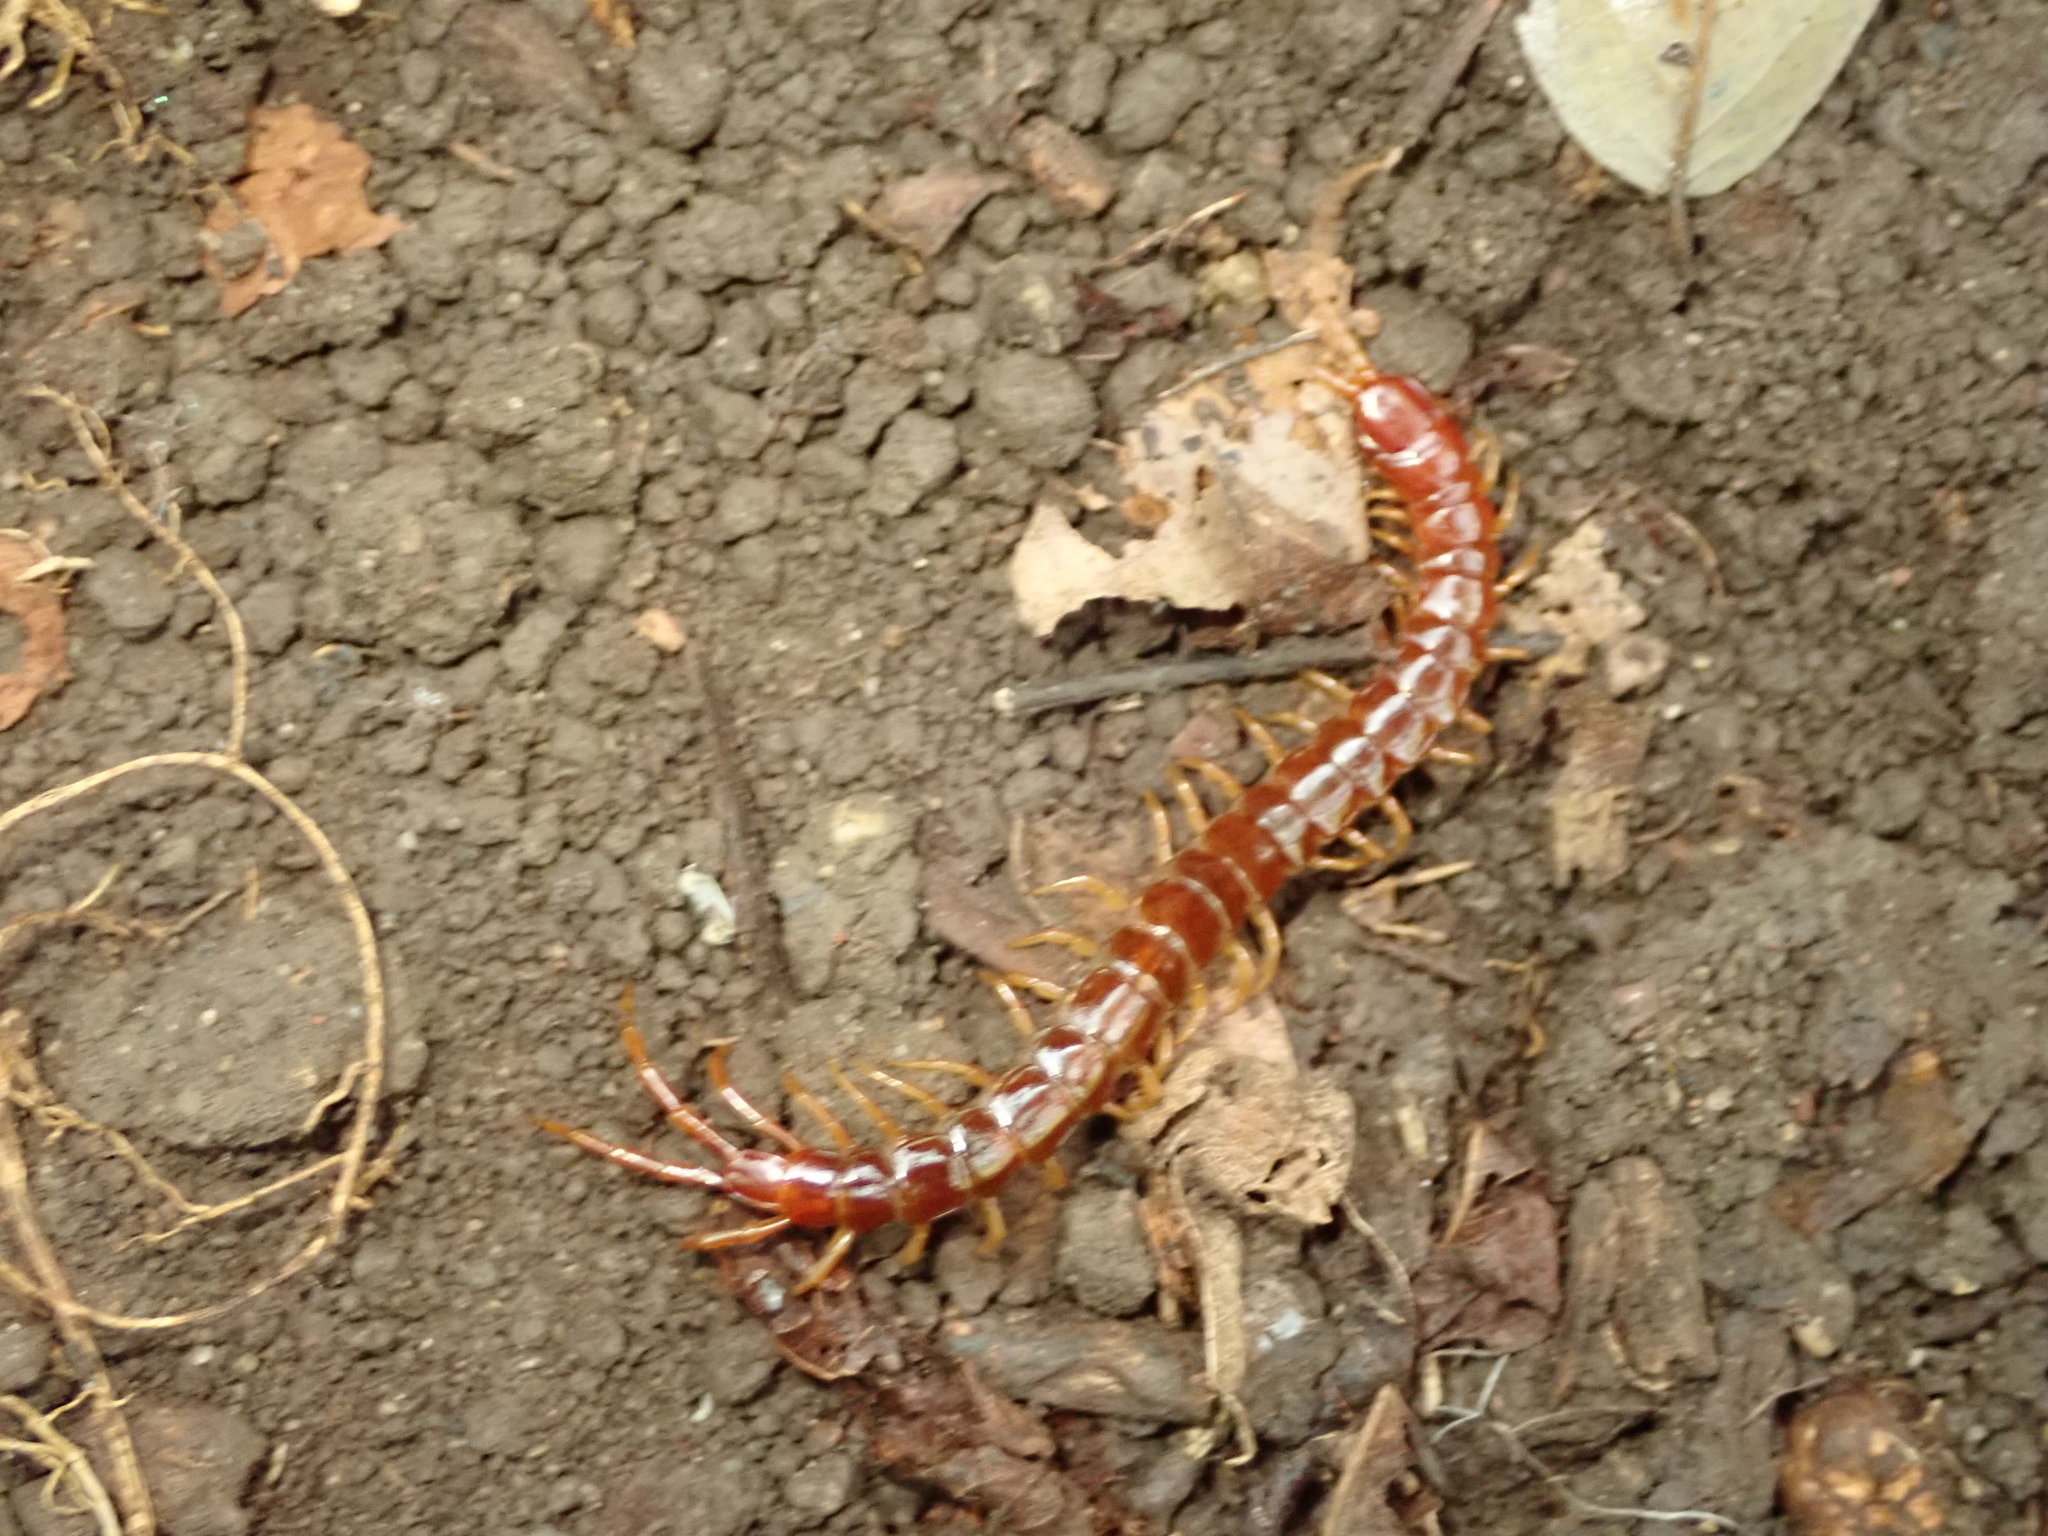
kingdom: Animalia
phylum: Arthropoda
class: Chilopoda
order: Scolopendromorpha
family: Scolopocryptopidae
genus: Scolopocryptops
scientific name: Scolopocryptops sexspinosus
